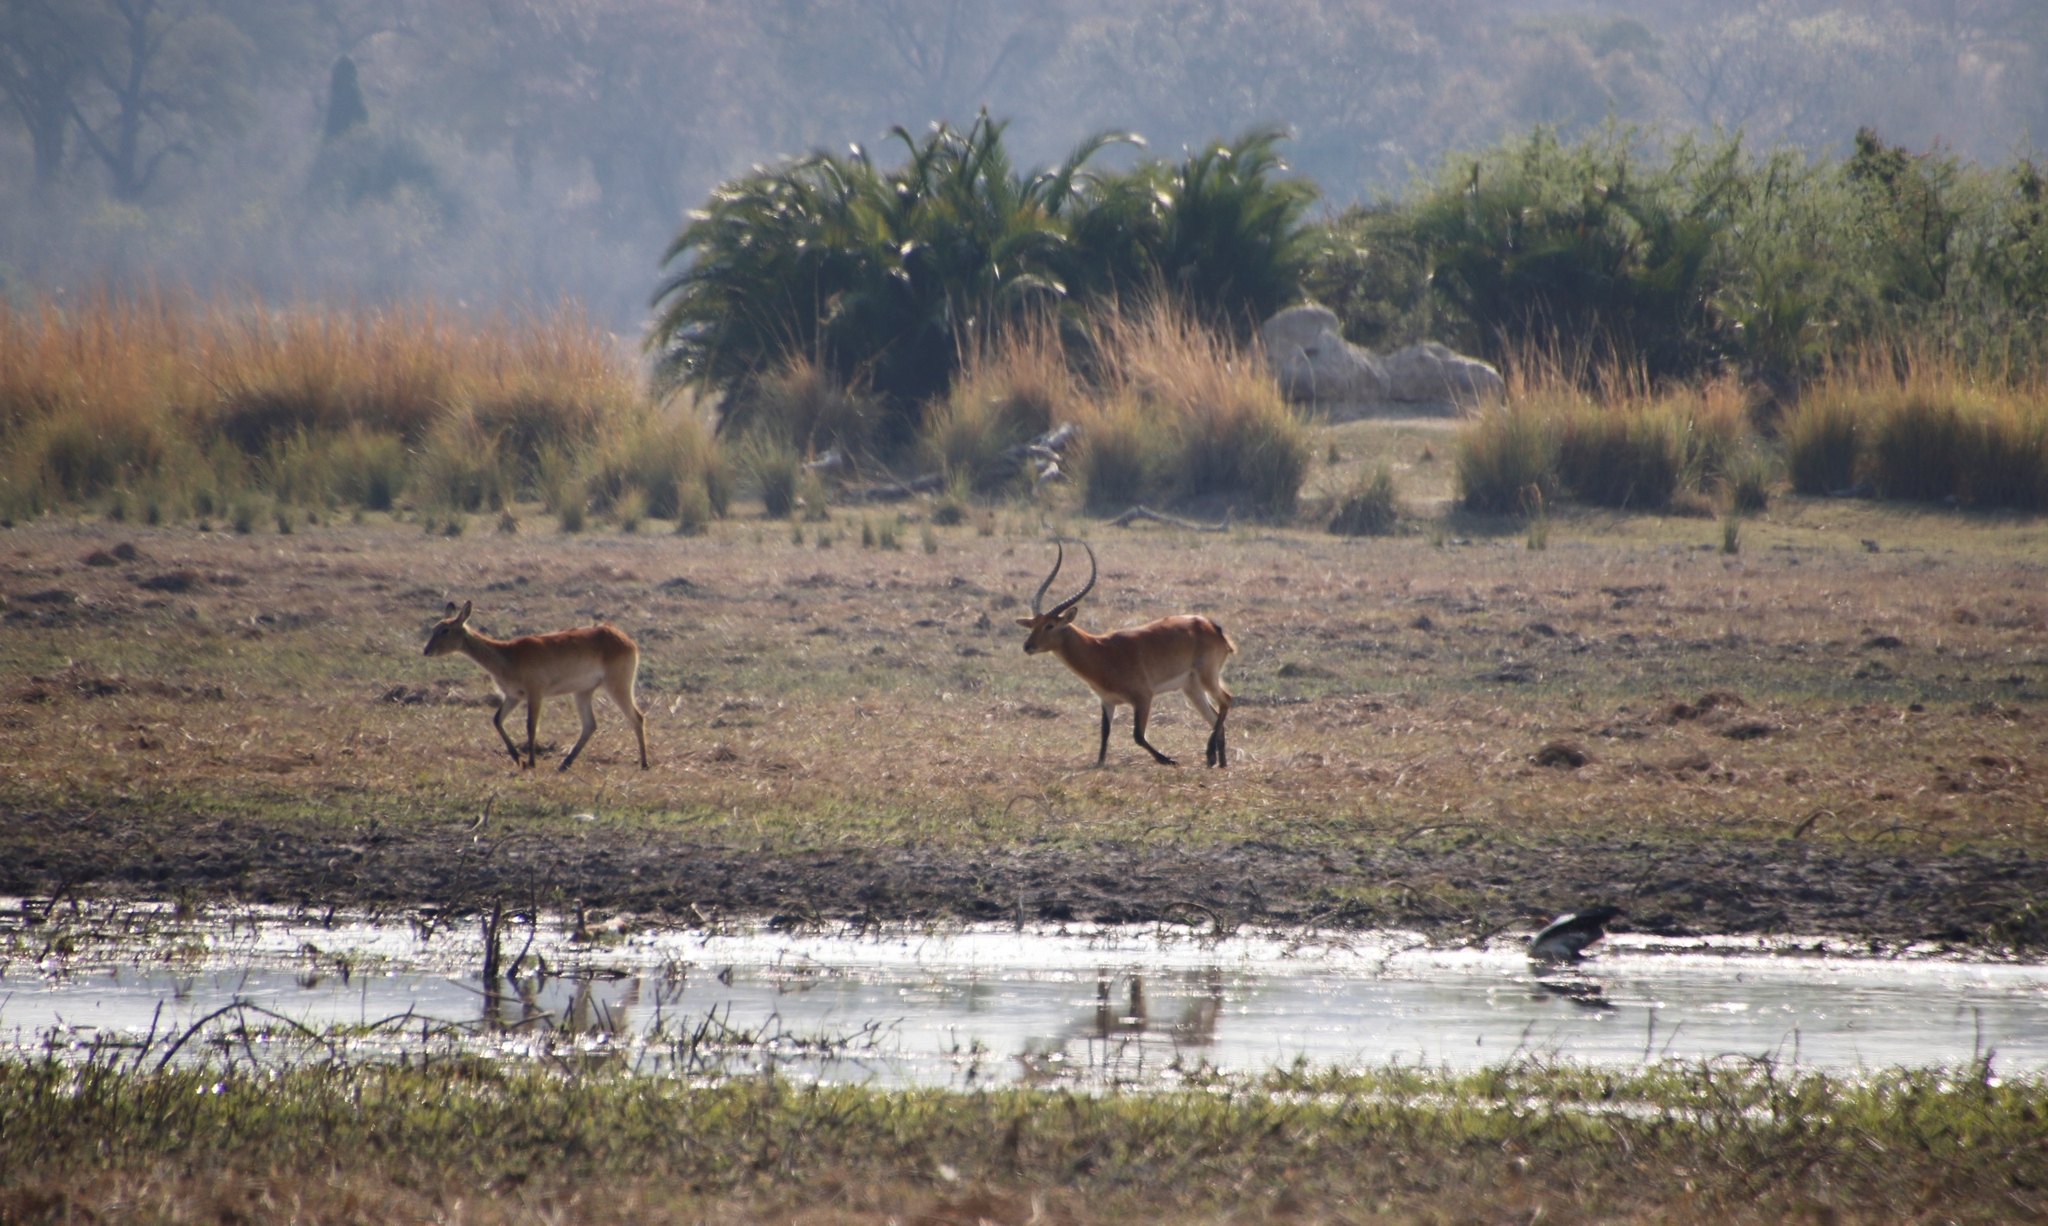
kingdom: Animalia
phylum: Chordata
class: Mammalia
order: Artiodactyla
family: Bovidae
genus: Kobus
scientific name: Kobus leche
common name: Lechwe
